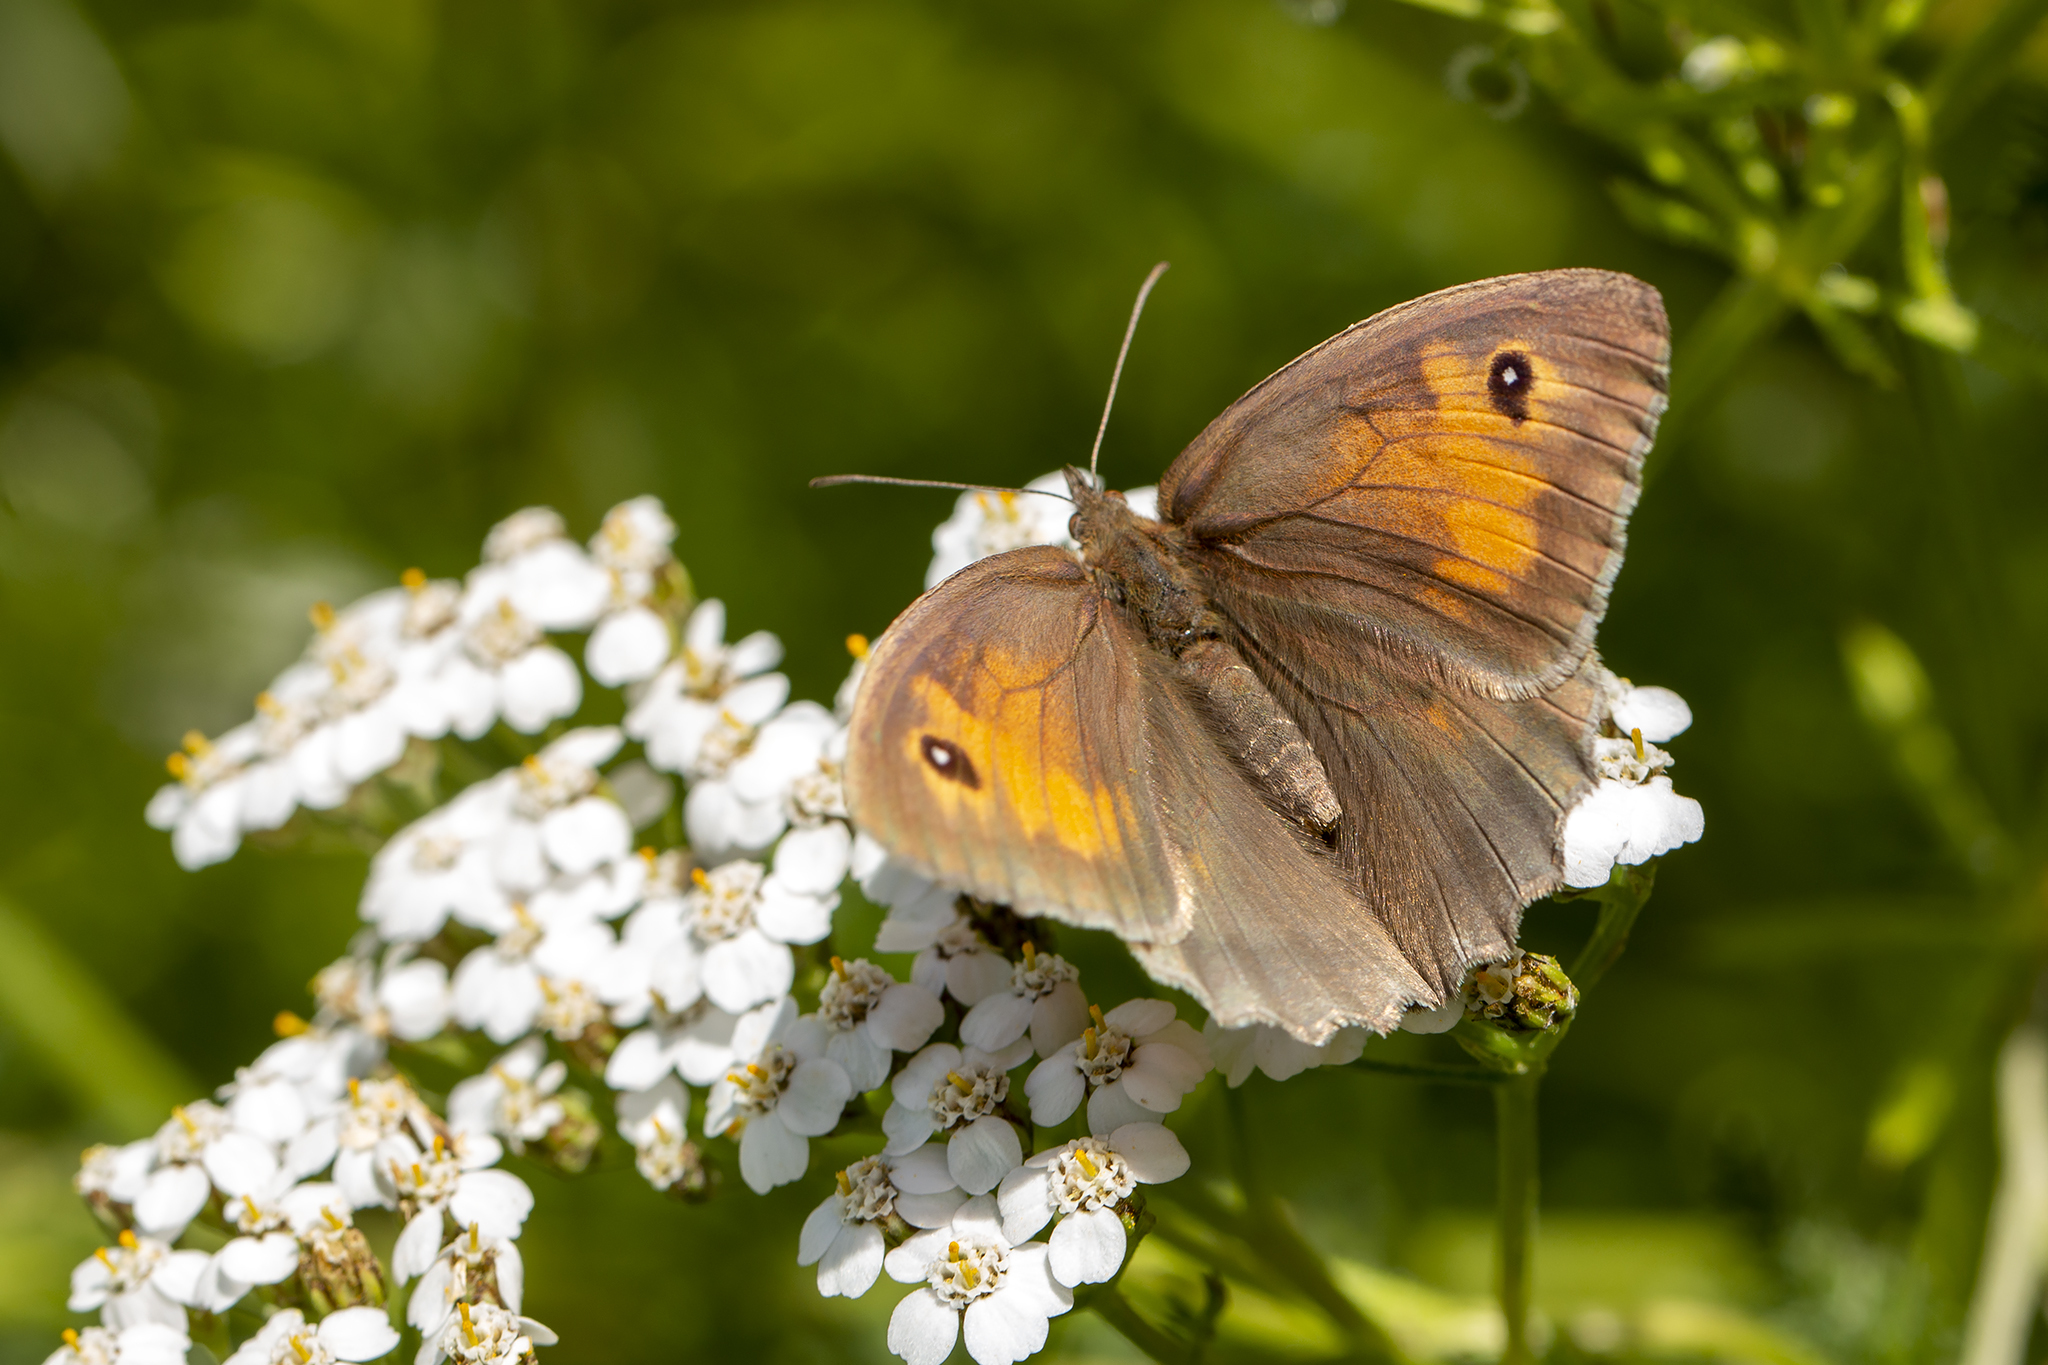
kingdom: Animalia
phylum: Arthropoda
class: Insecta
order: Lepidoptera
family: Nymphalidae
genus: Maniola
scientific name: Maniola jurtina
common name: Meadow brown
